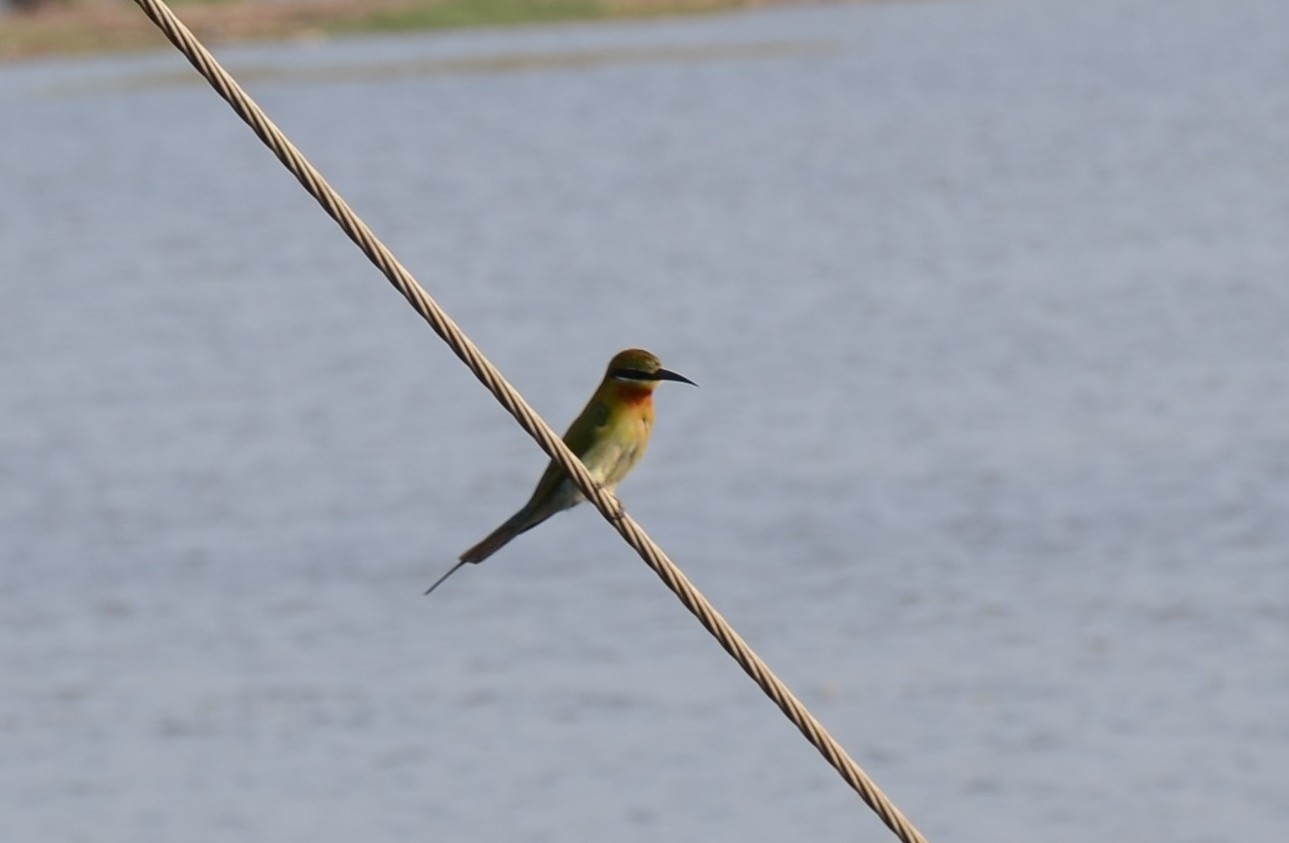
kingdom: Animalia
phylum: Chordata
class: Aves
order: Coraciiformes
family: Meropidae
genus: Merops
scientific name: Merops philippinus
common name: Blue-tailed bee-eater
